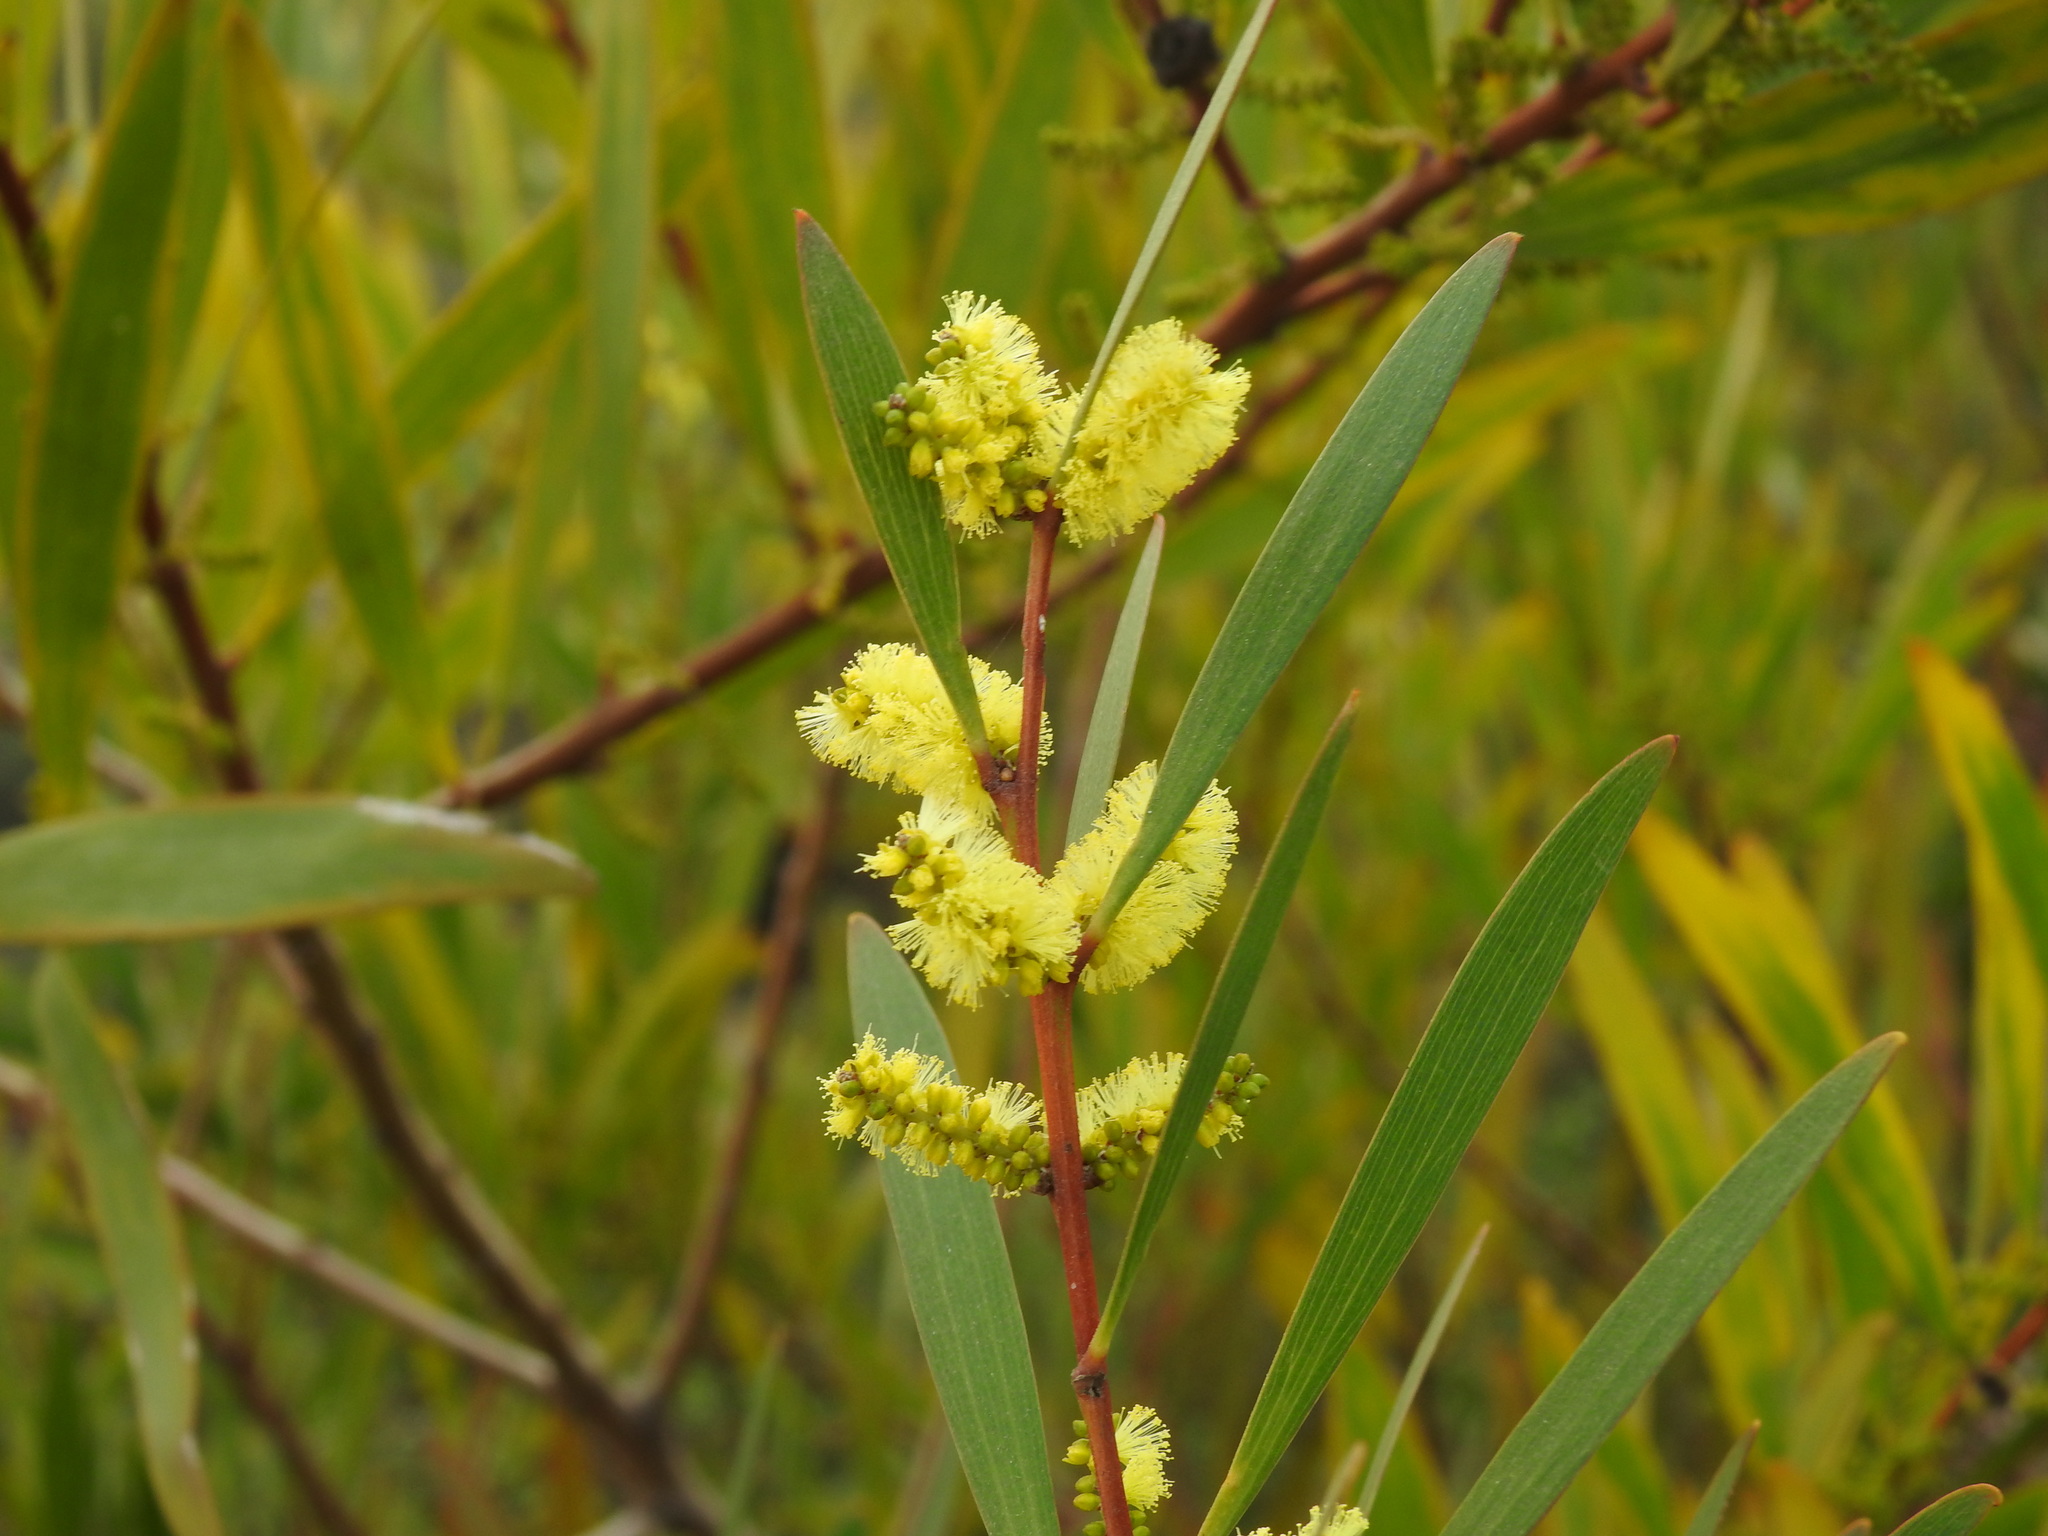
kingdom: Plantae
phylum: Tracheophyta
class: Magnoliopsida
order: Fabales
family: Fabaceae
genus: Acacia
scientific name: Acacia longifolia
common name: Sydney golden wattle
